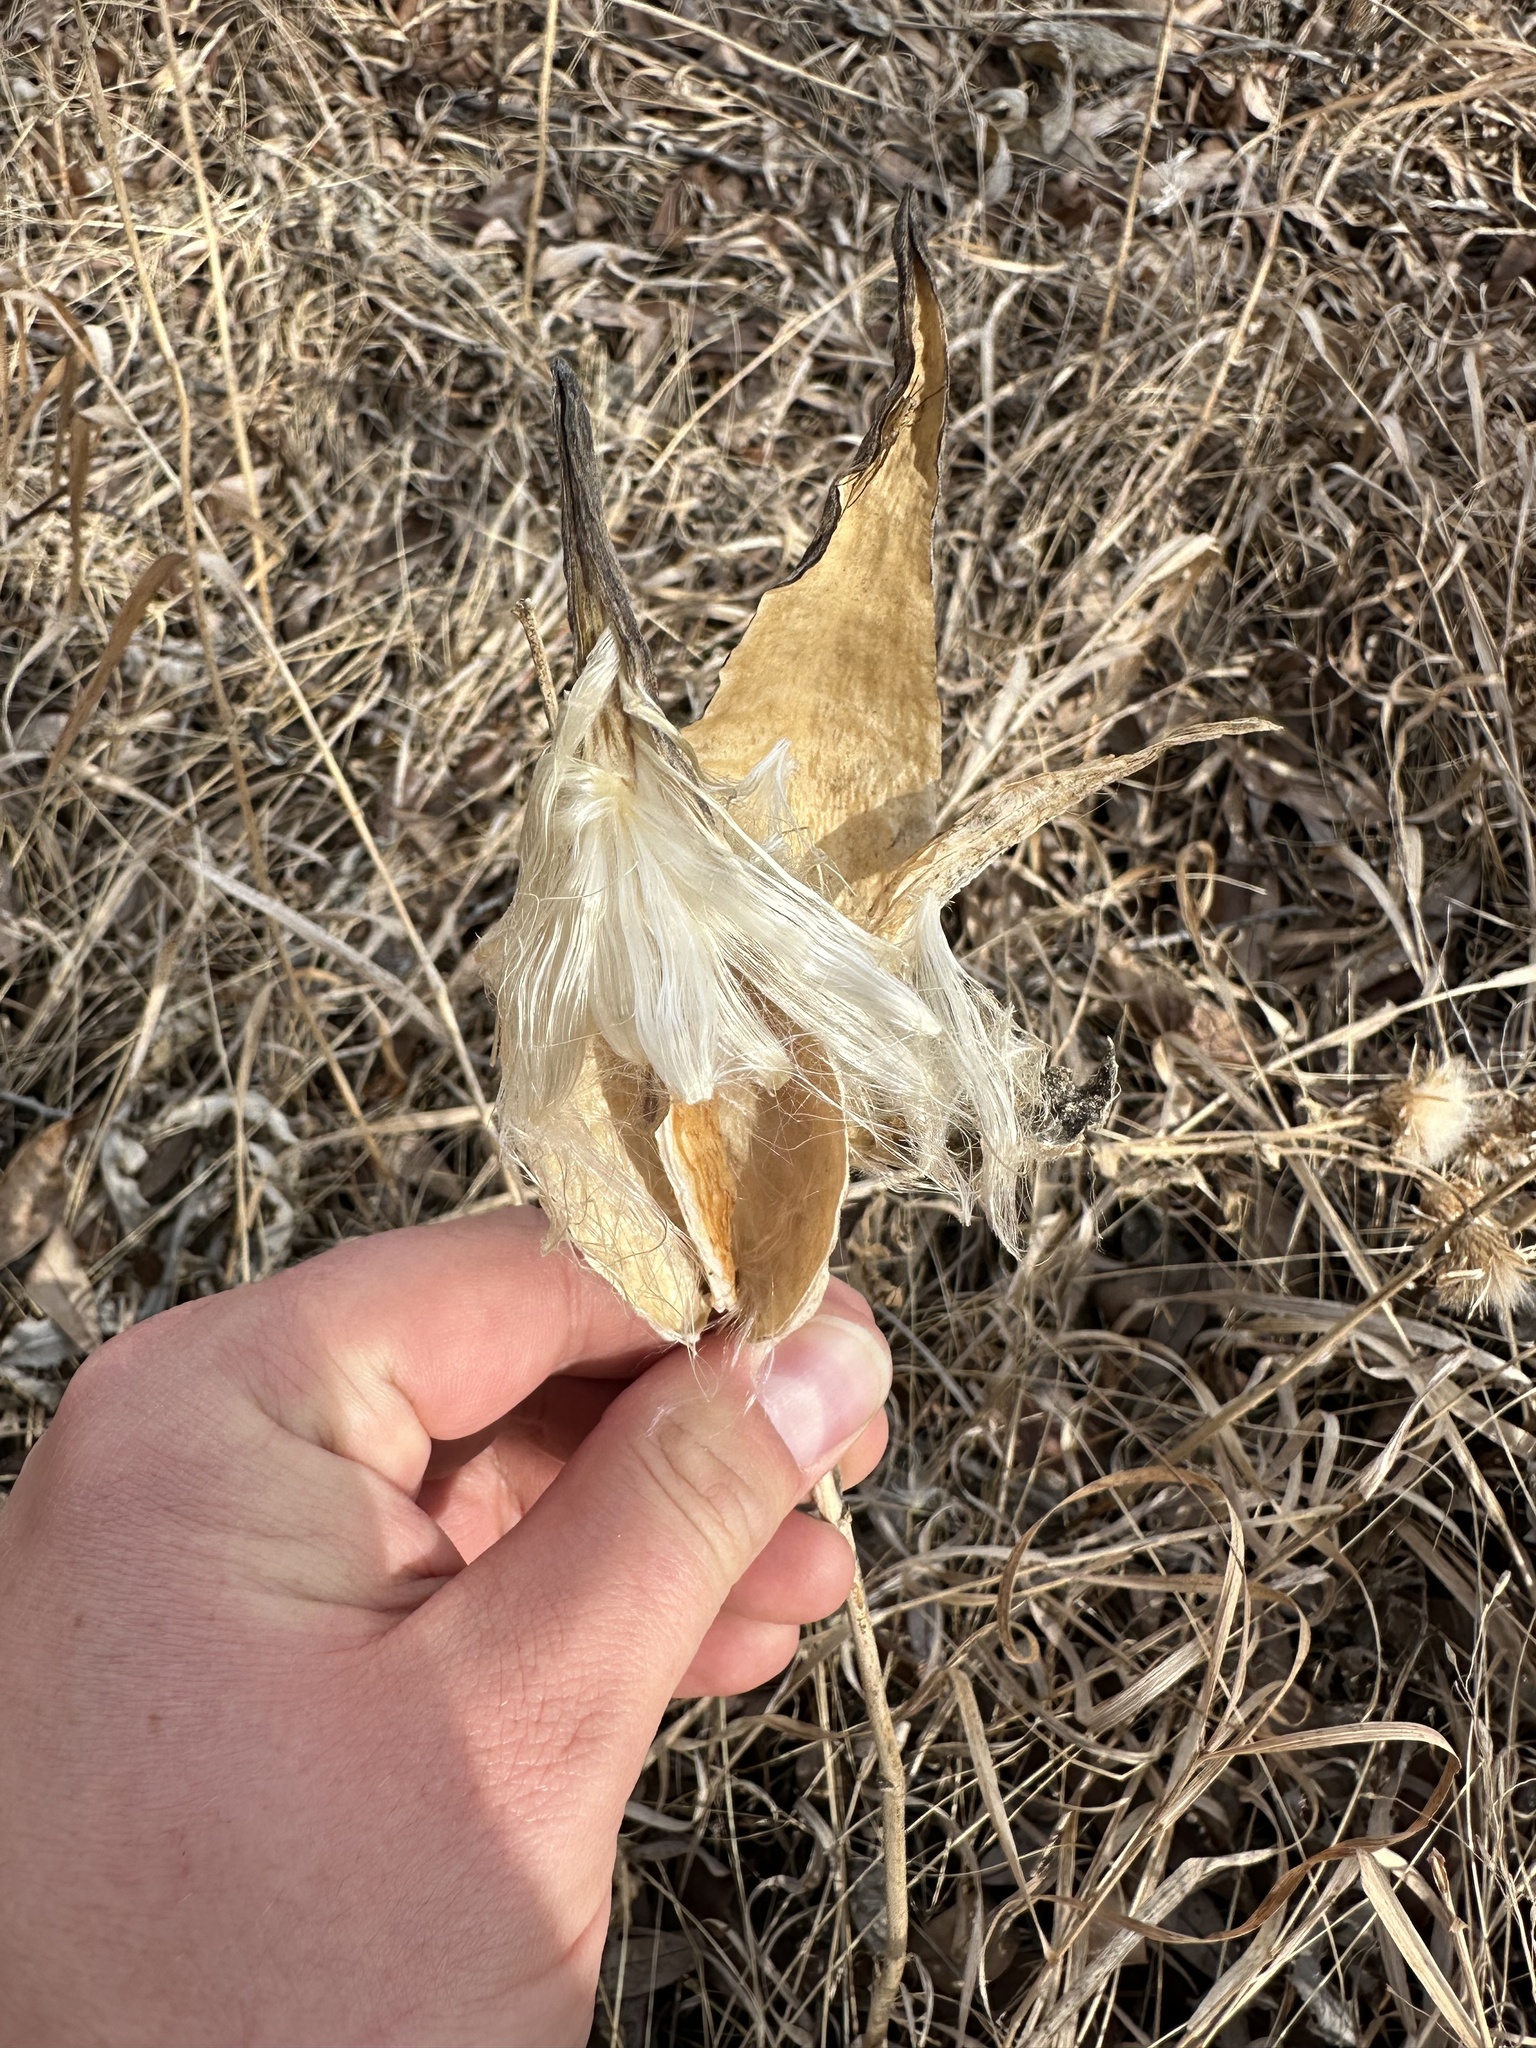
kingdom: Plantae
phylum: Tracheophyta
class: Magnoliopsida
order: Gentianales
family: Apocynaceae
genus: Asclepias
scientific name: Asclepias ovalifolia
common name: Dwarf milkweed
